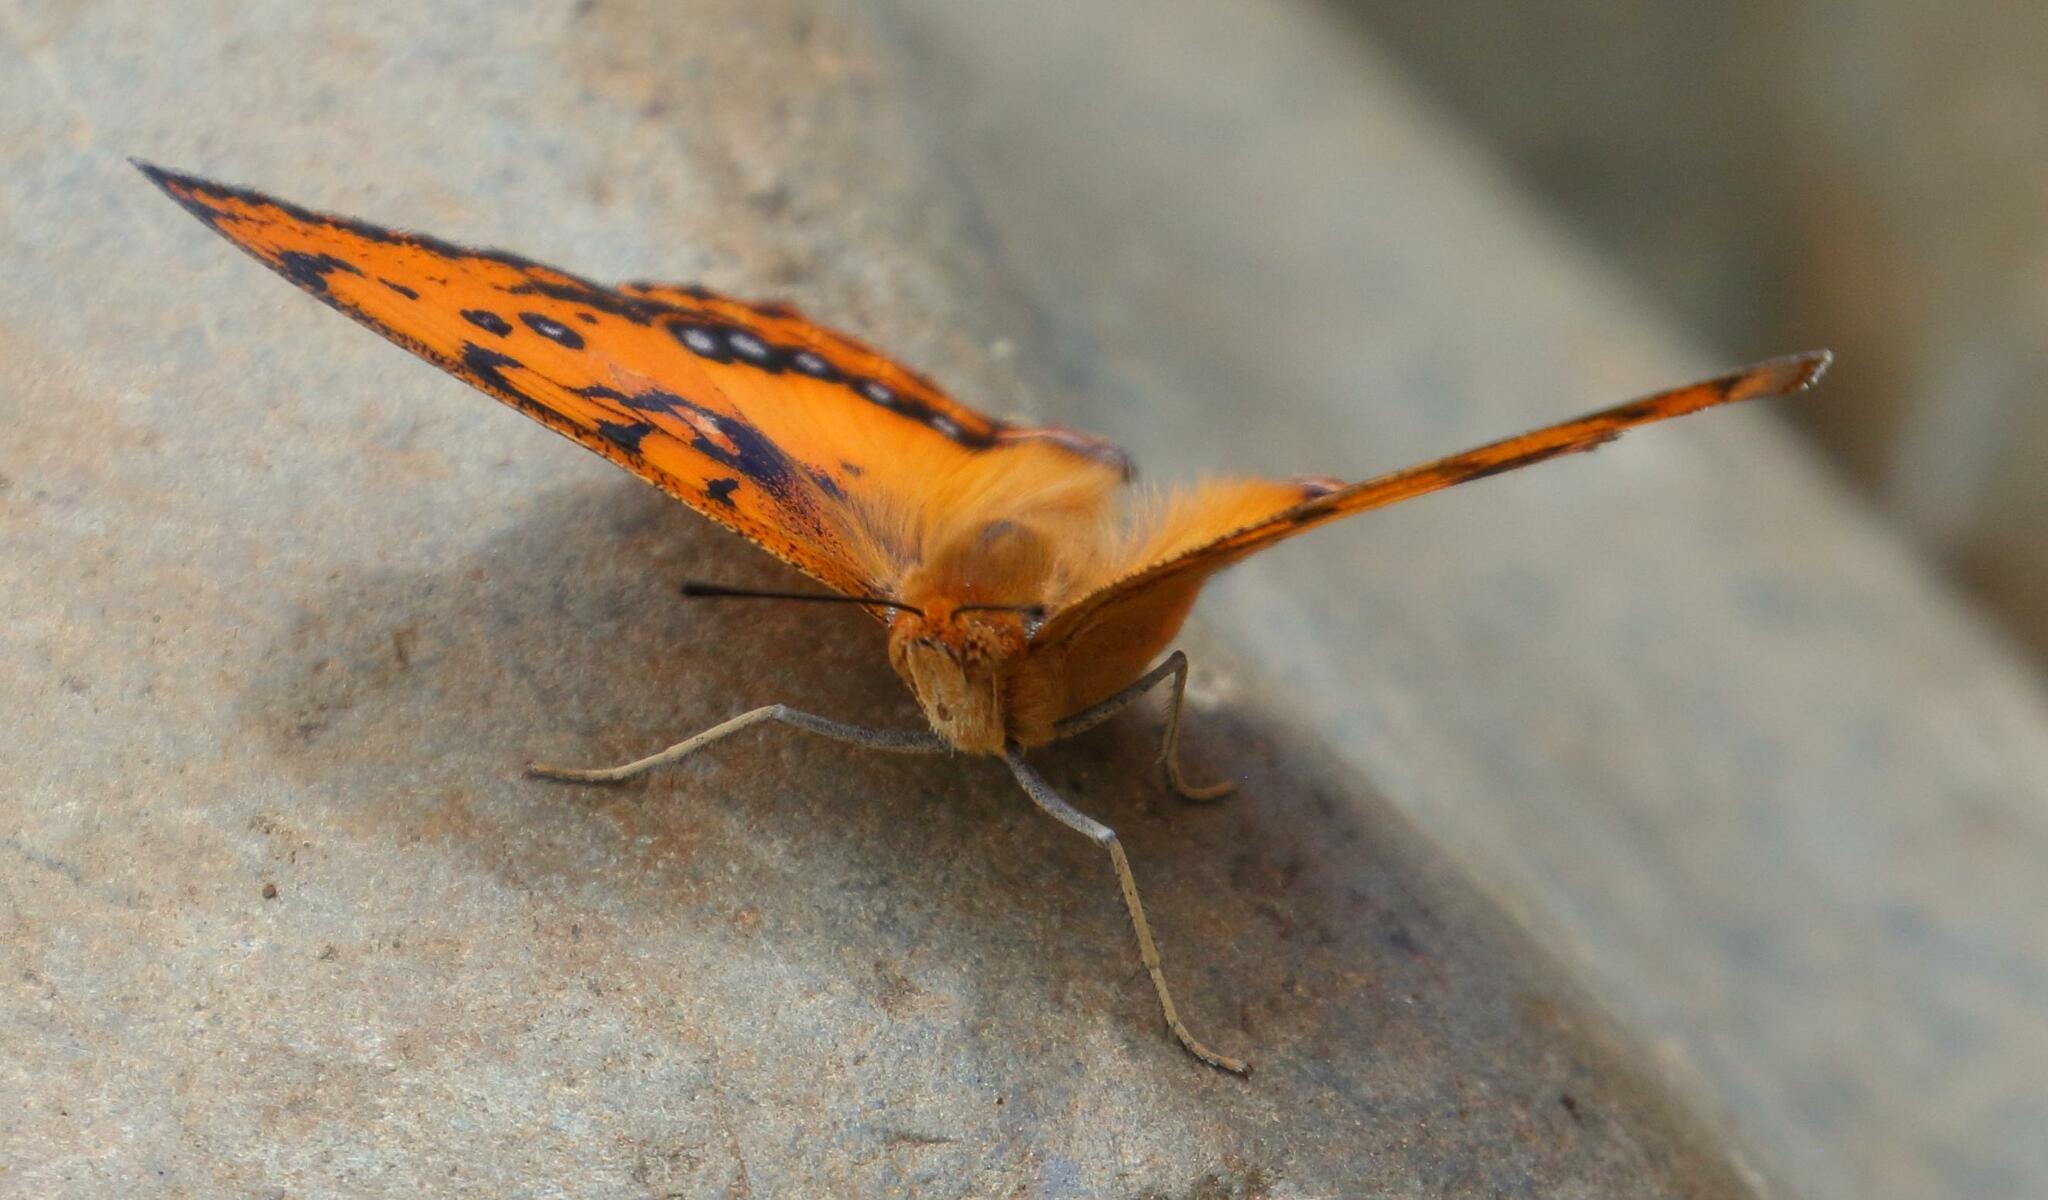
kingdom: Animalia
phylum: Arthropoda
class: Insecta
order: Lepidoptera
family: Nymphalidae
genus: Catacroptera
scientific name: Catacroptera cloanthe
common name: Pirate
